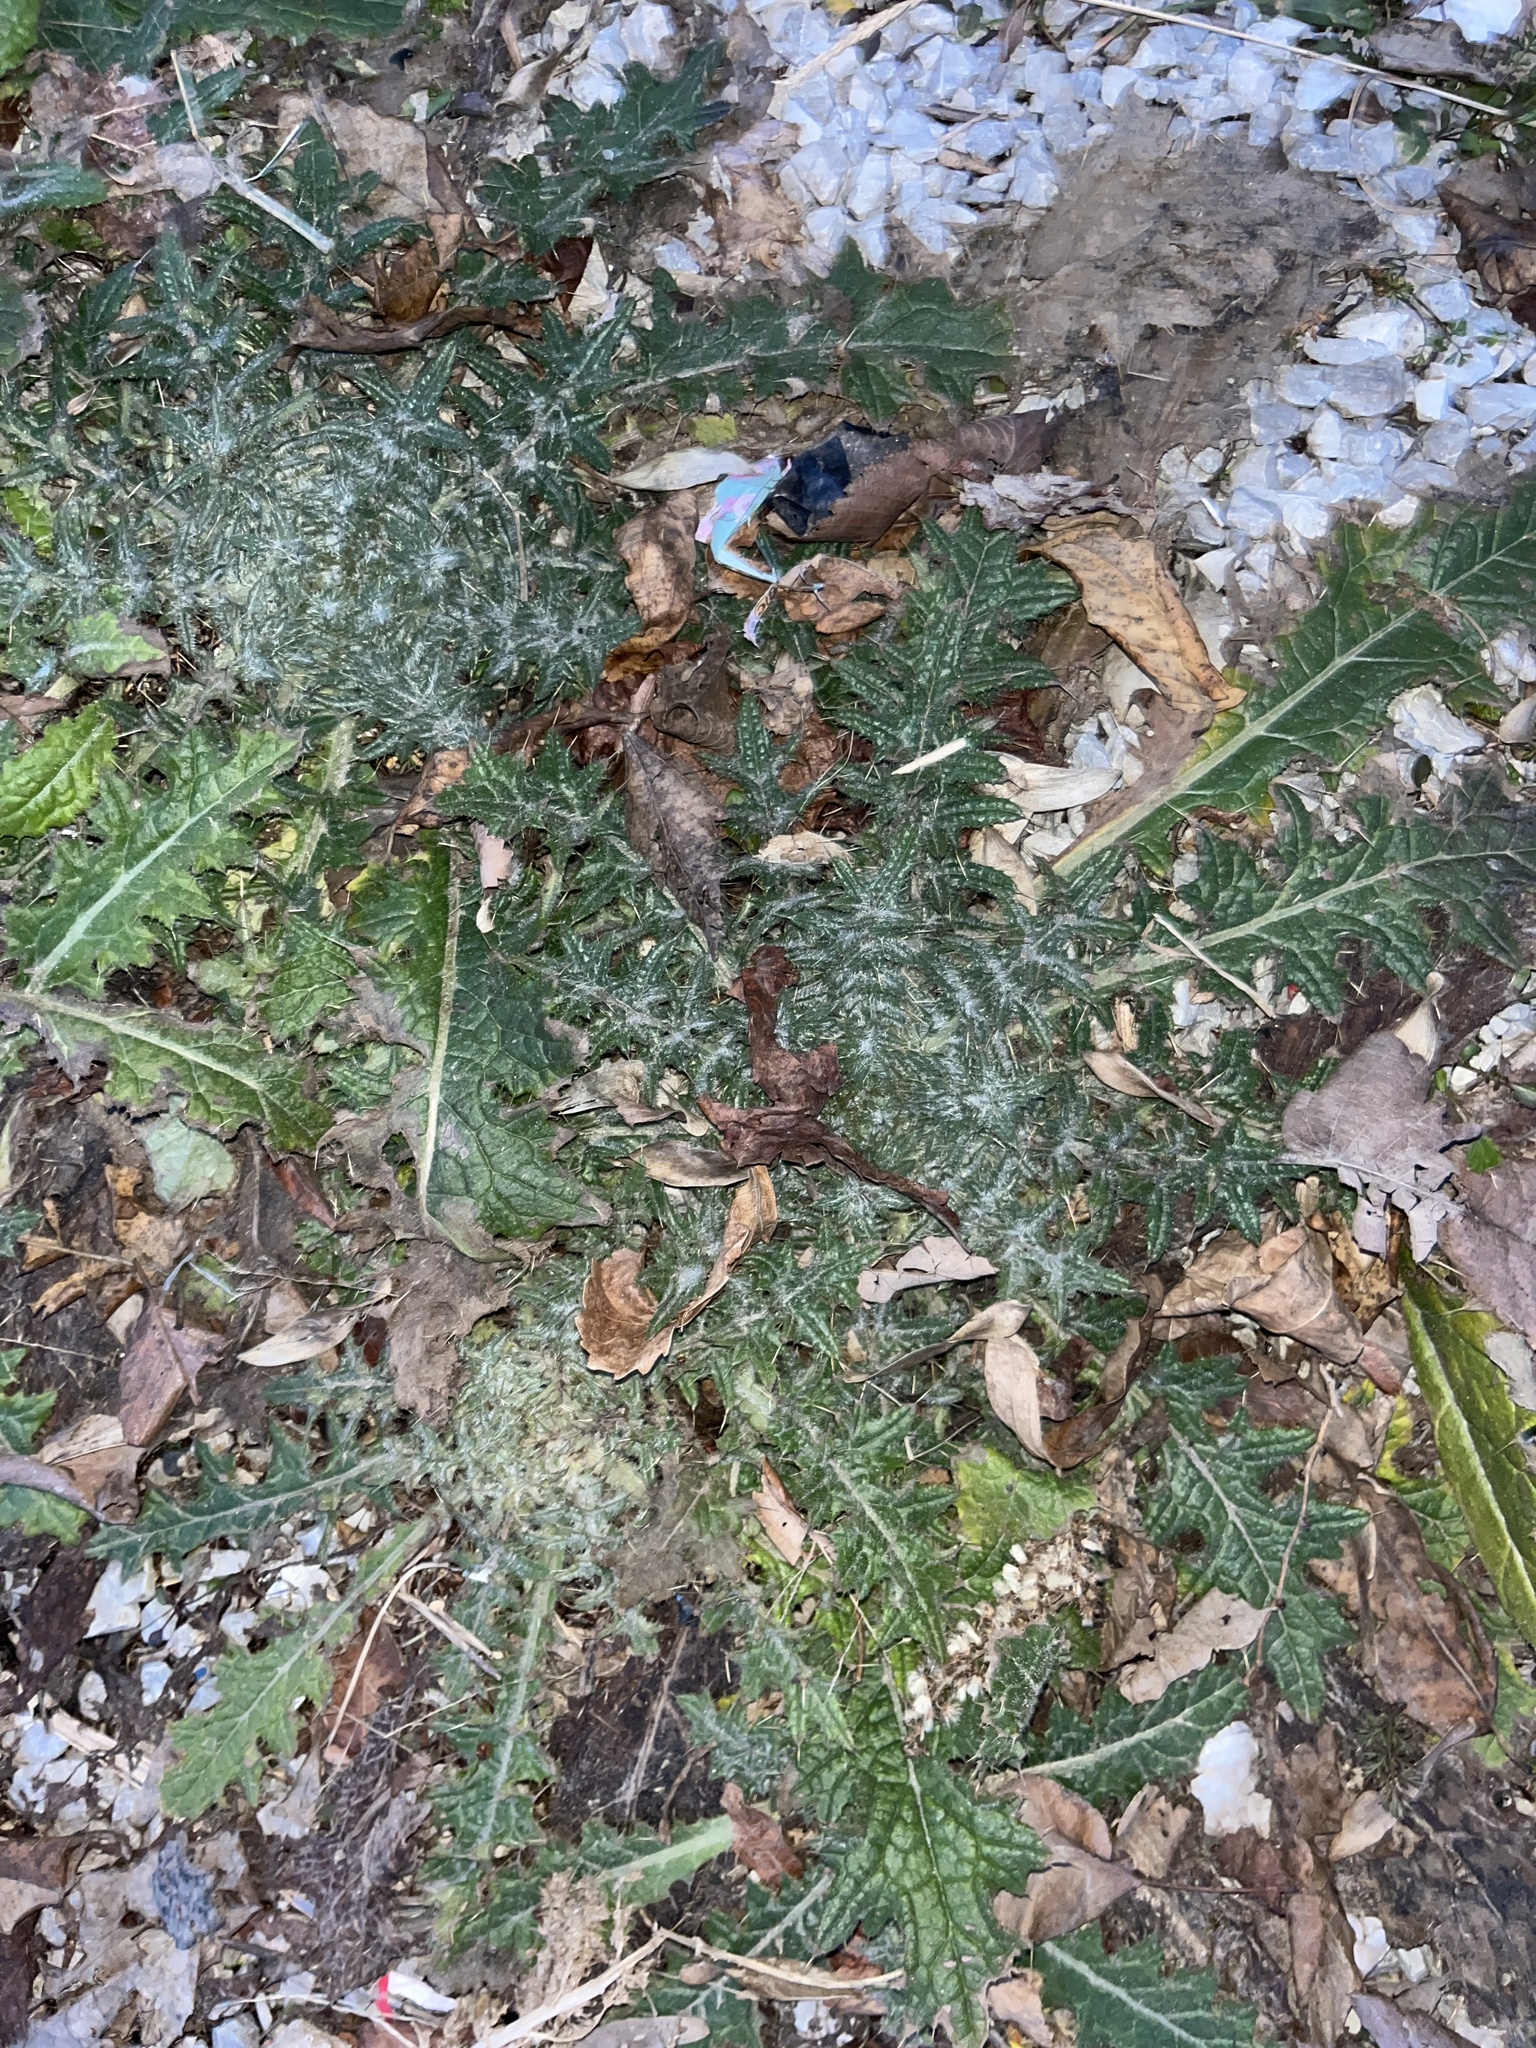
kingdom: Plantae
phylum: Tracheophyta
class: Magnoliopsida
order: Asterales
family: Asteraceae
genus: Cirsium
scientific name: Cirsium vulgare
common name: Bull thistle
